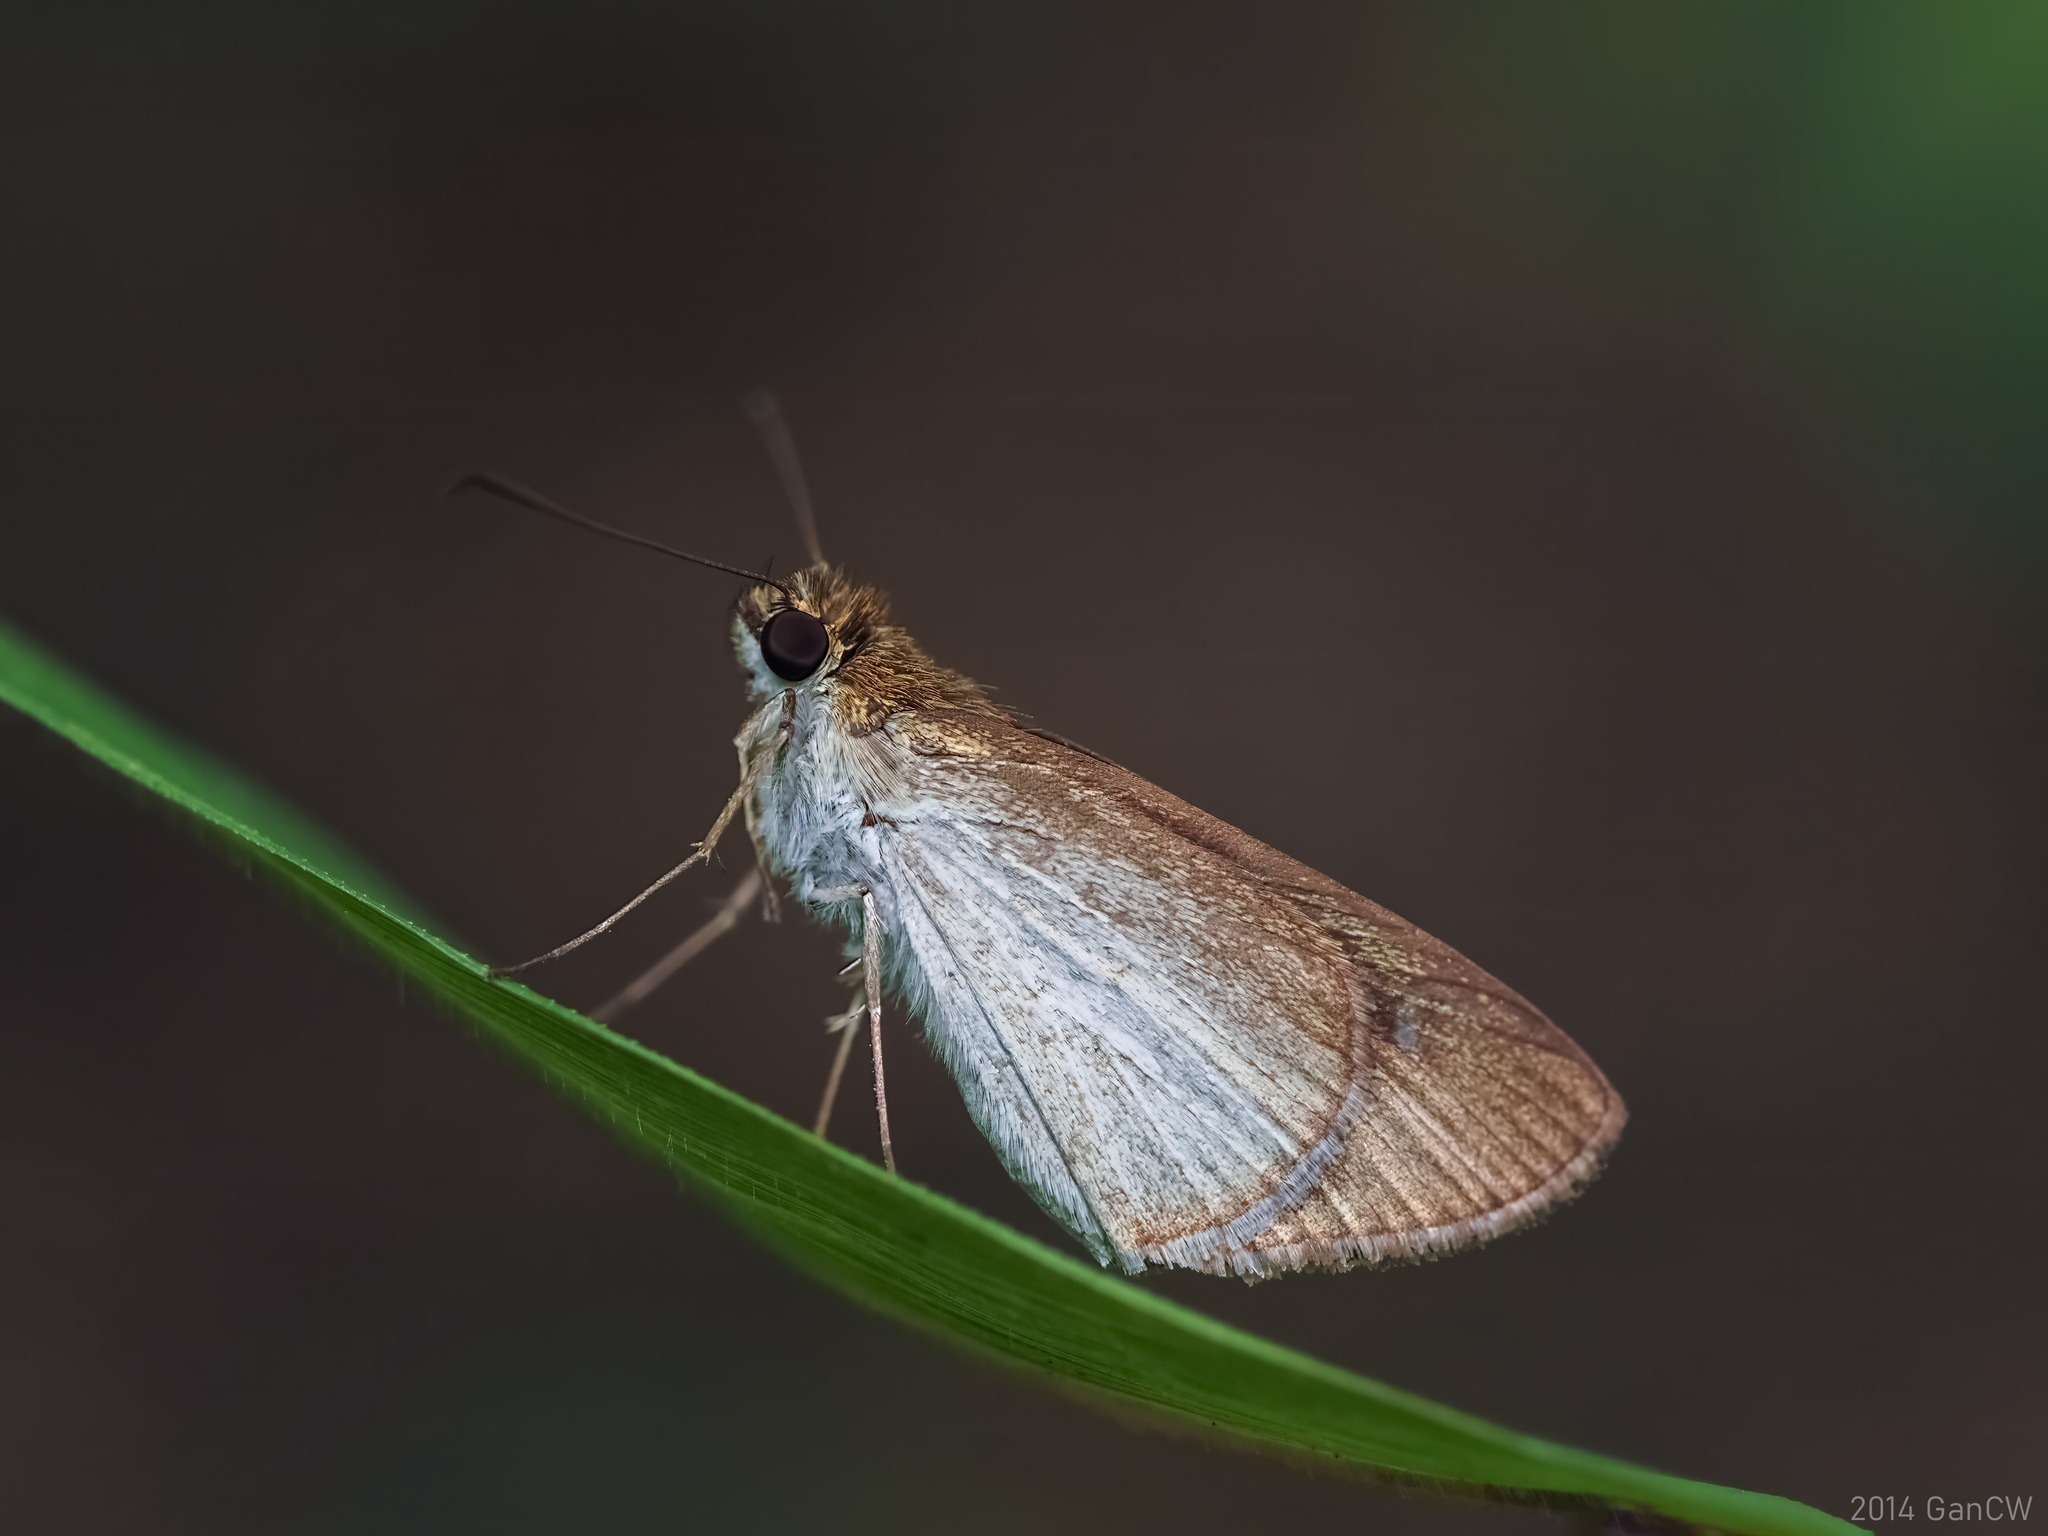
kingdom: Animalia
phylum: Arthropoda
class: Insecta
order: Lepidoptera
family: Hesperiidae
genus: Suada
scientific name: Suada swerga
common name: Grass bob
